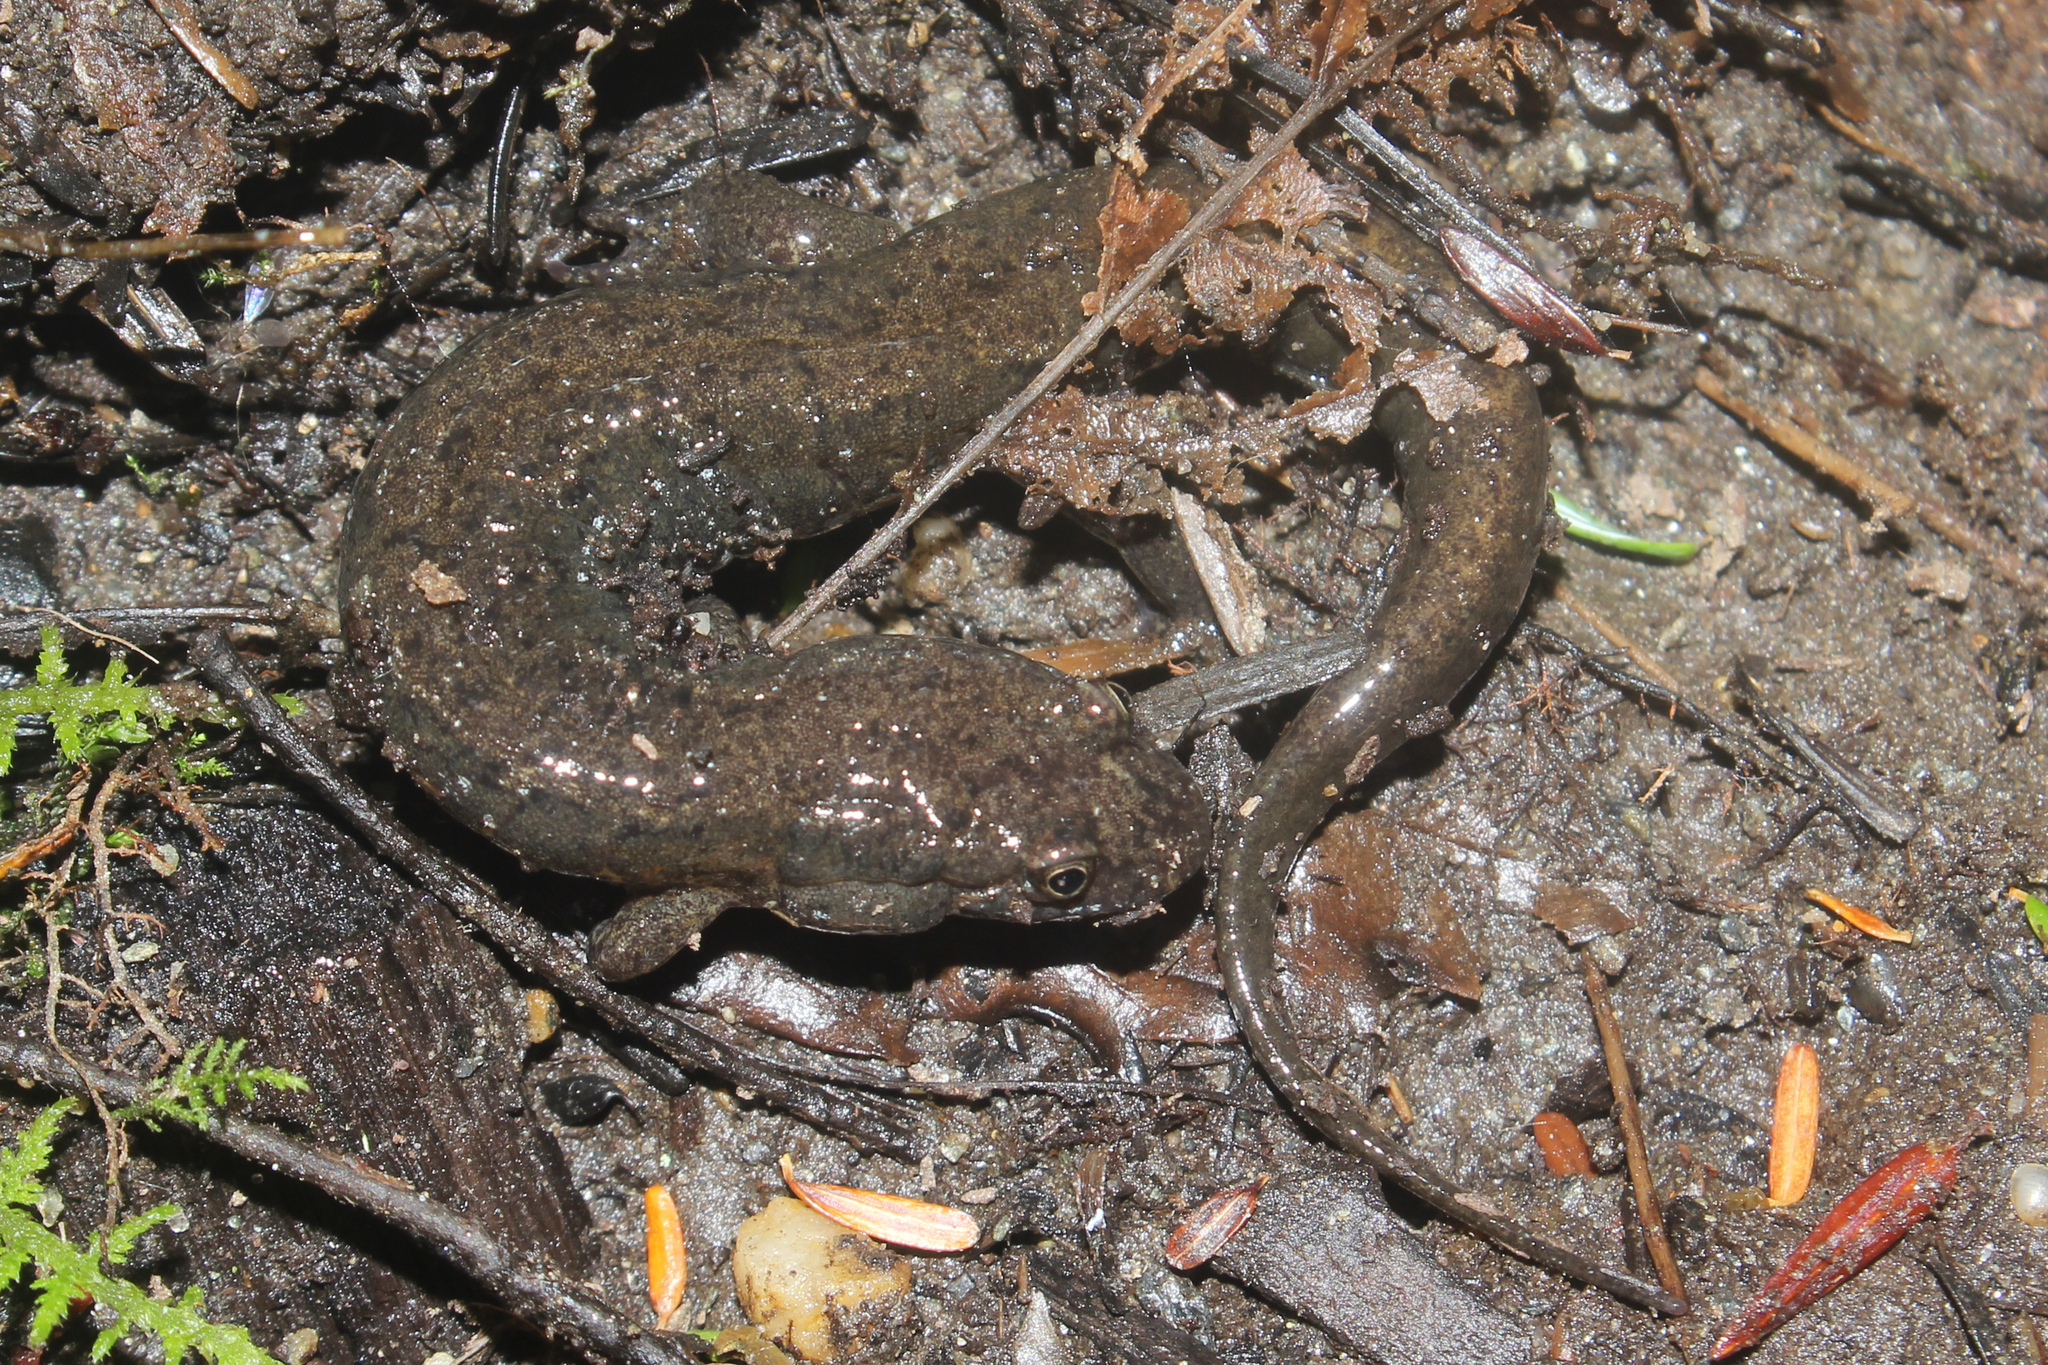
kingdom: Animalia
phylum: Chordata
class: Amphibia
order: Caudata
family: Plethodontidae
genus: Desmognathus
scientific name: Desmognathus fuscus
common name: Northern dusky salamander
